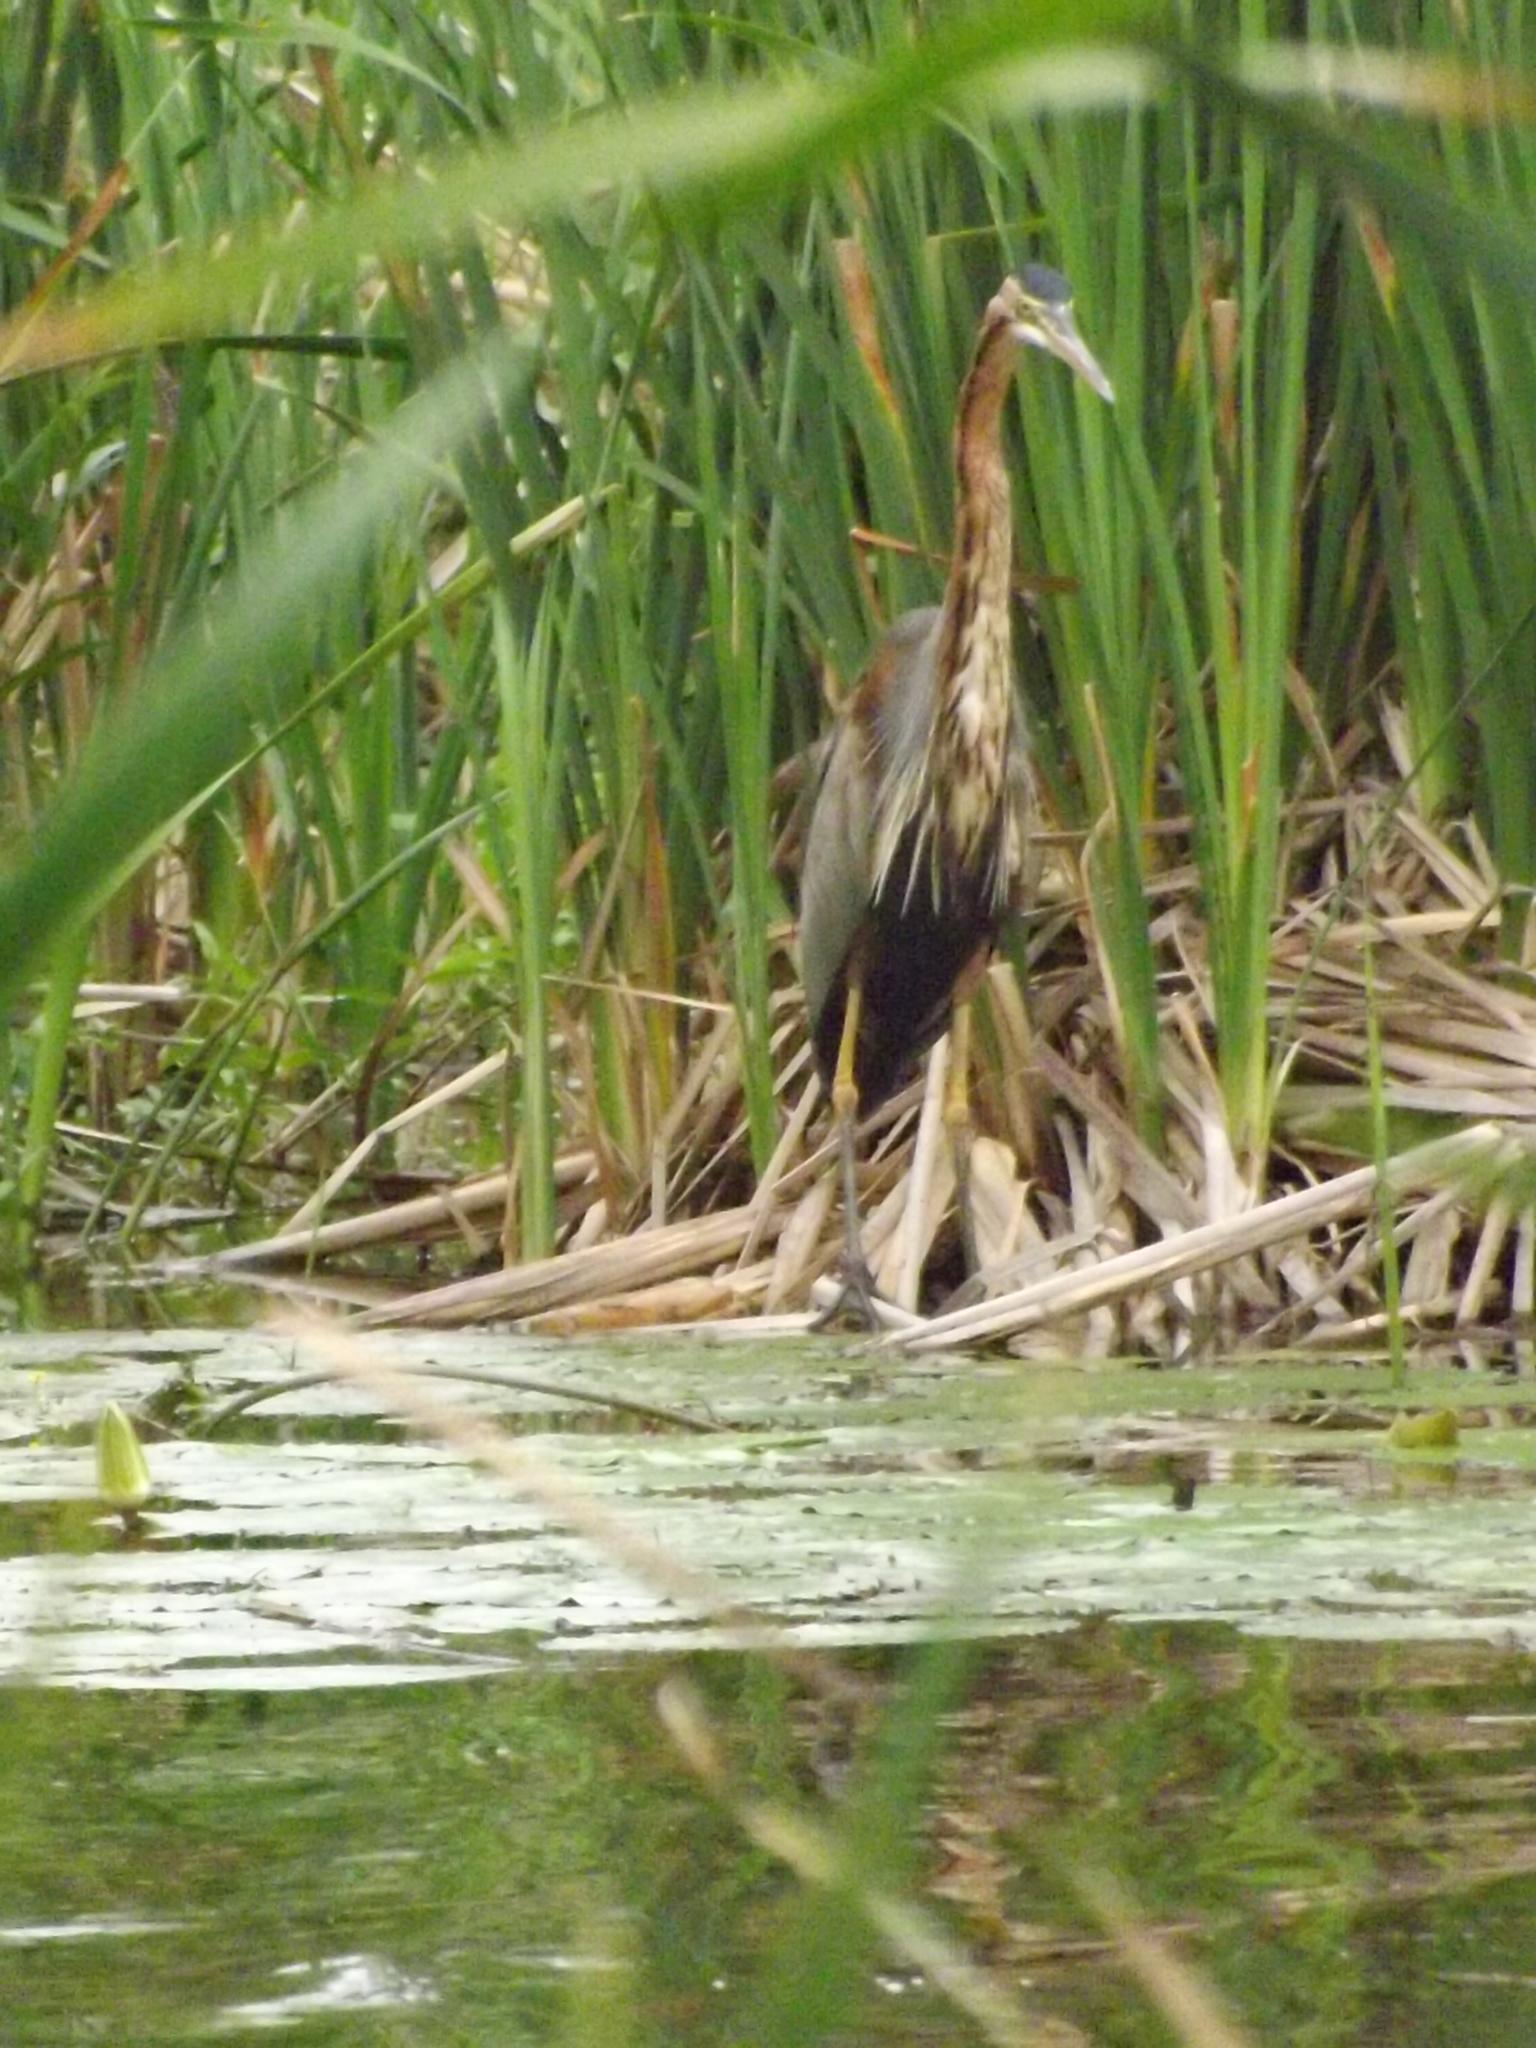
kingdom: Animalia
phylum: Chordata
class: Aves
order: Pelecaniformes
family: Ardeidae
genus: Ardea
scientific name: Ardea purpurea
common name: Purple heron
